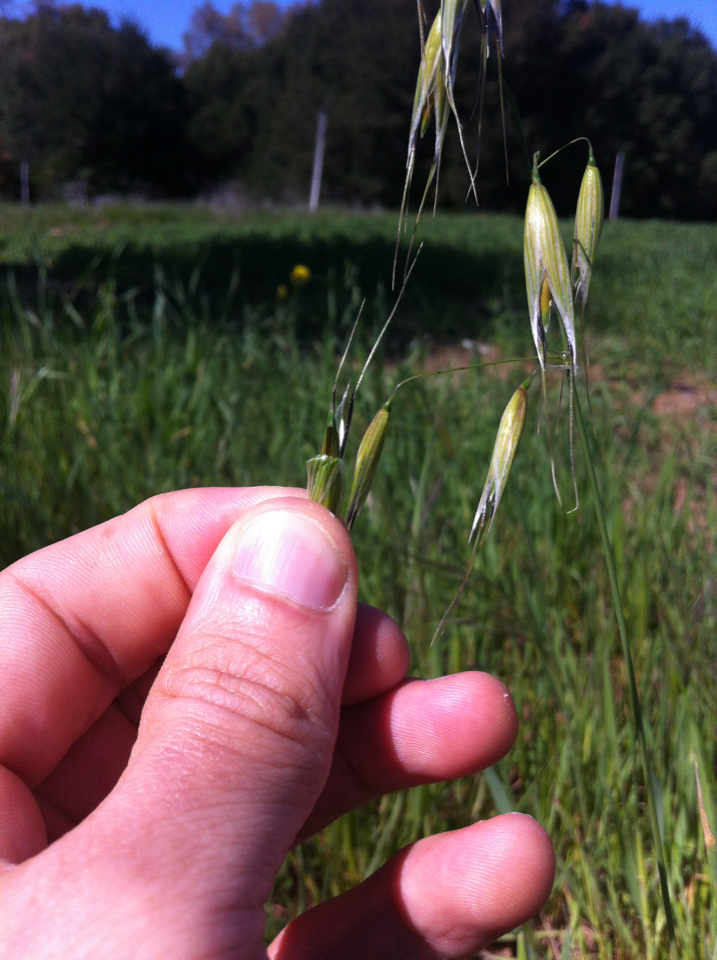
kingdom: Plantae
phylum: Tracheophyta
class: Liliopsida
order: Poales
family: Poaceae
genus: Avena
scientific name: Avena fatua
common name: Wild oat
